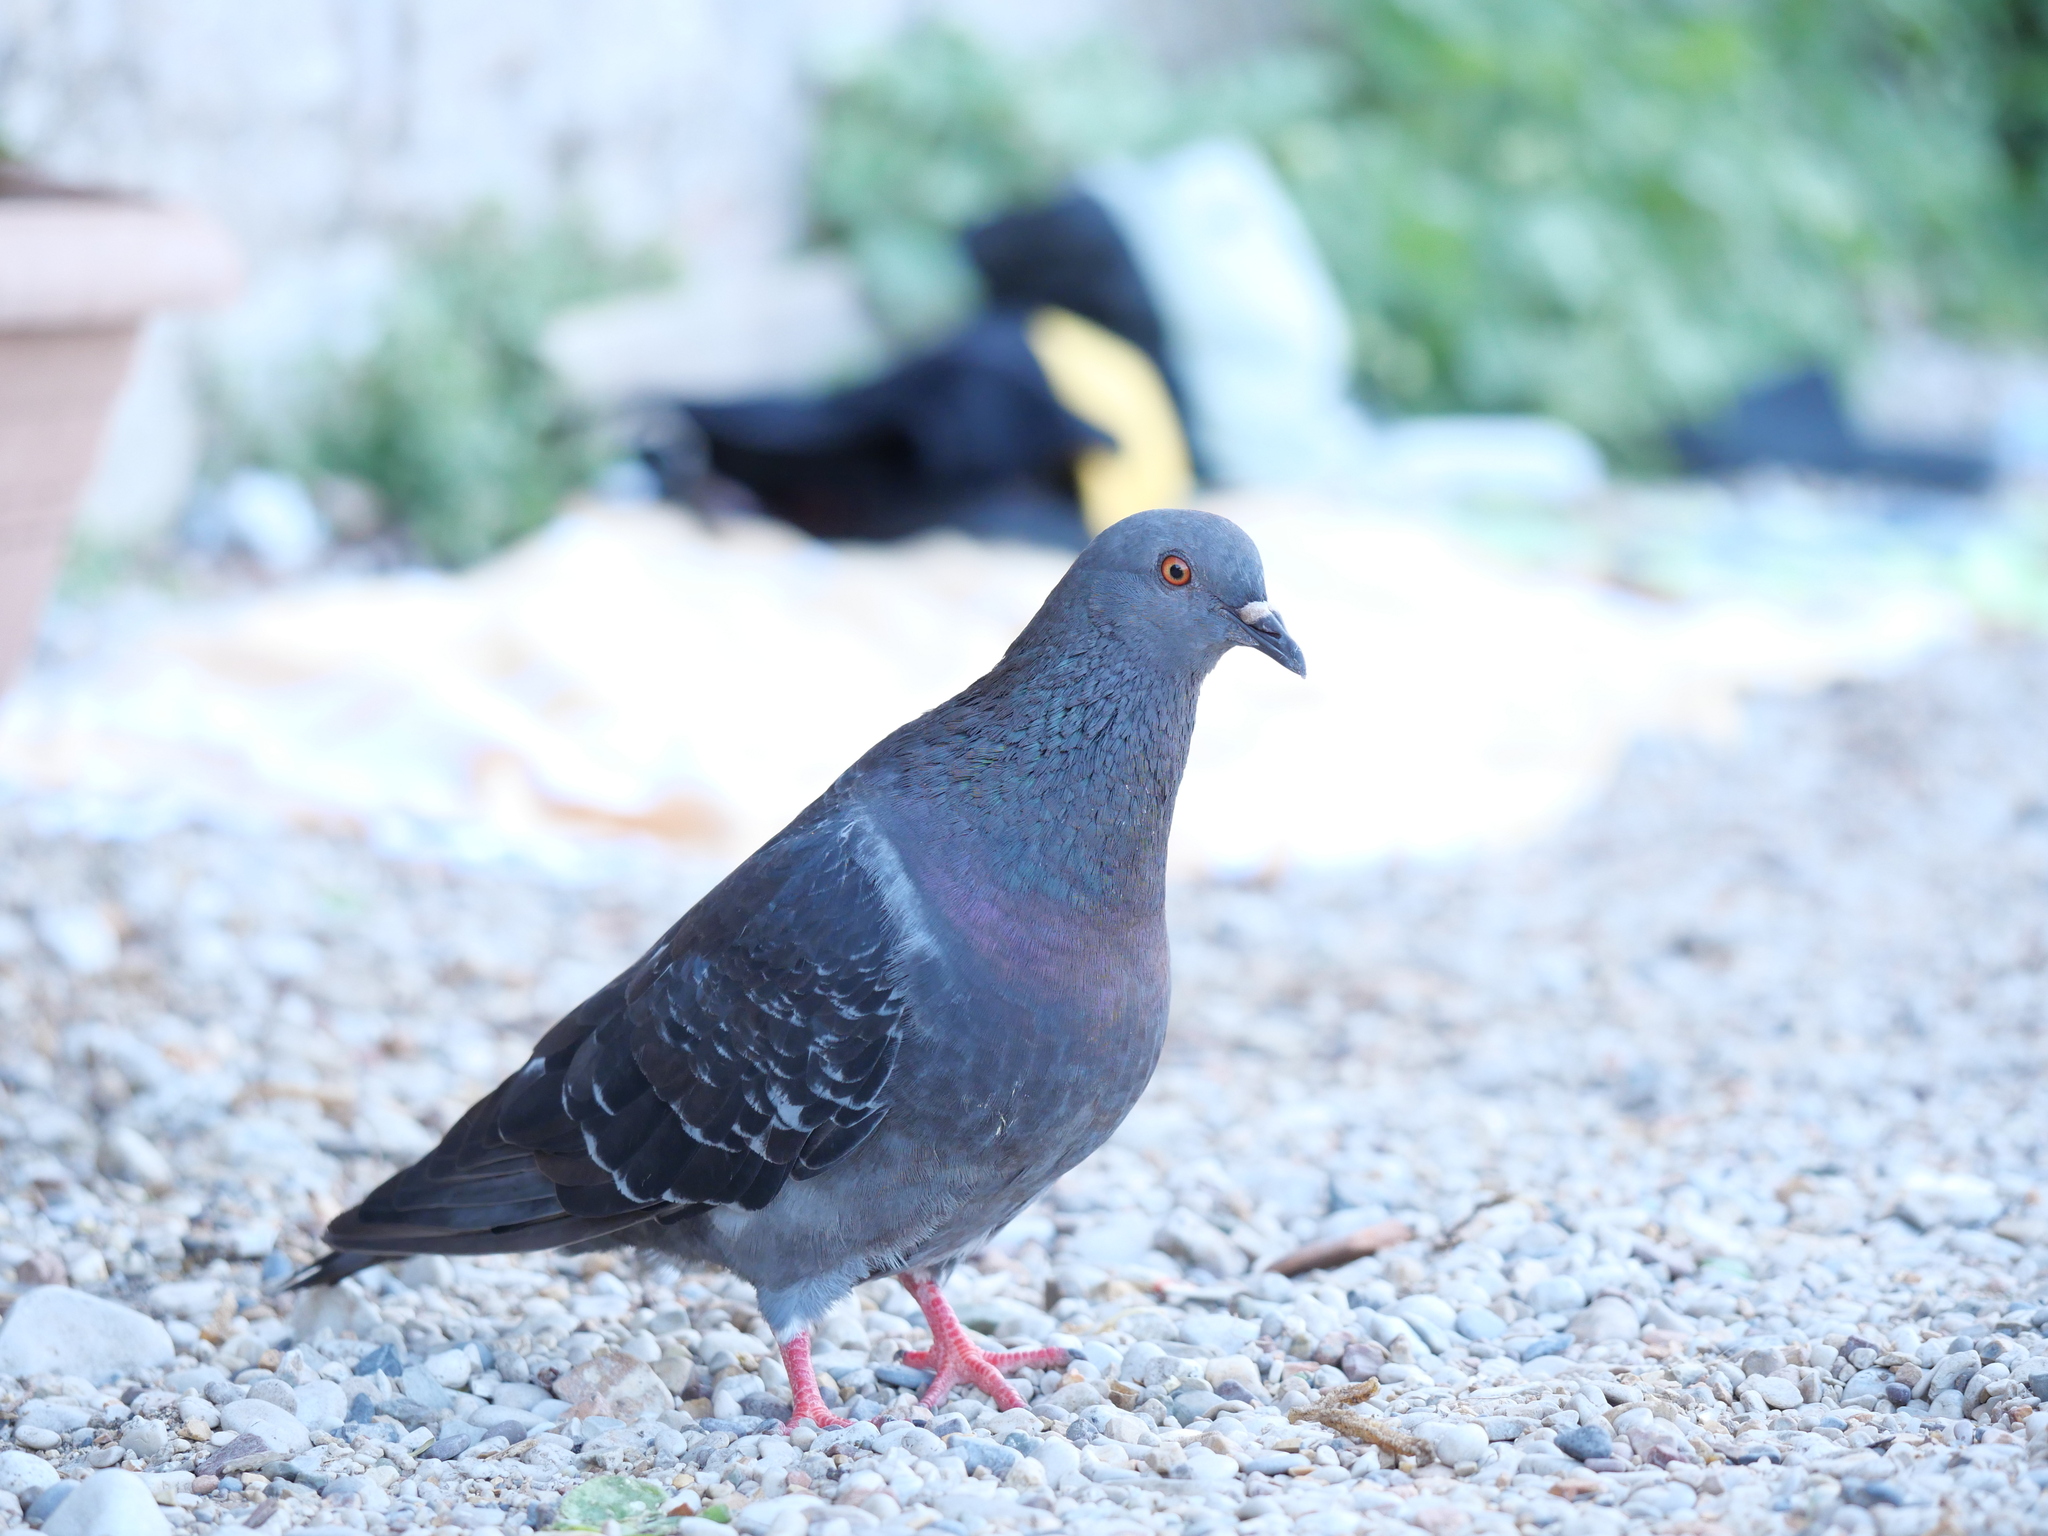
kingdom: Animalia
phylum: Chordata
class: Aves
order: Columbiformes
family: Columbidae
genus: Columba
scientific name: Columba livia
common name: Rock pigeon
